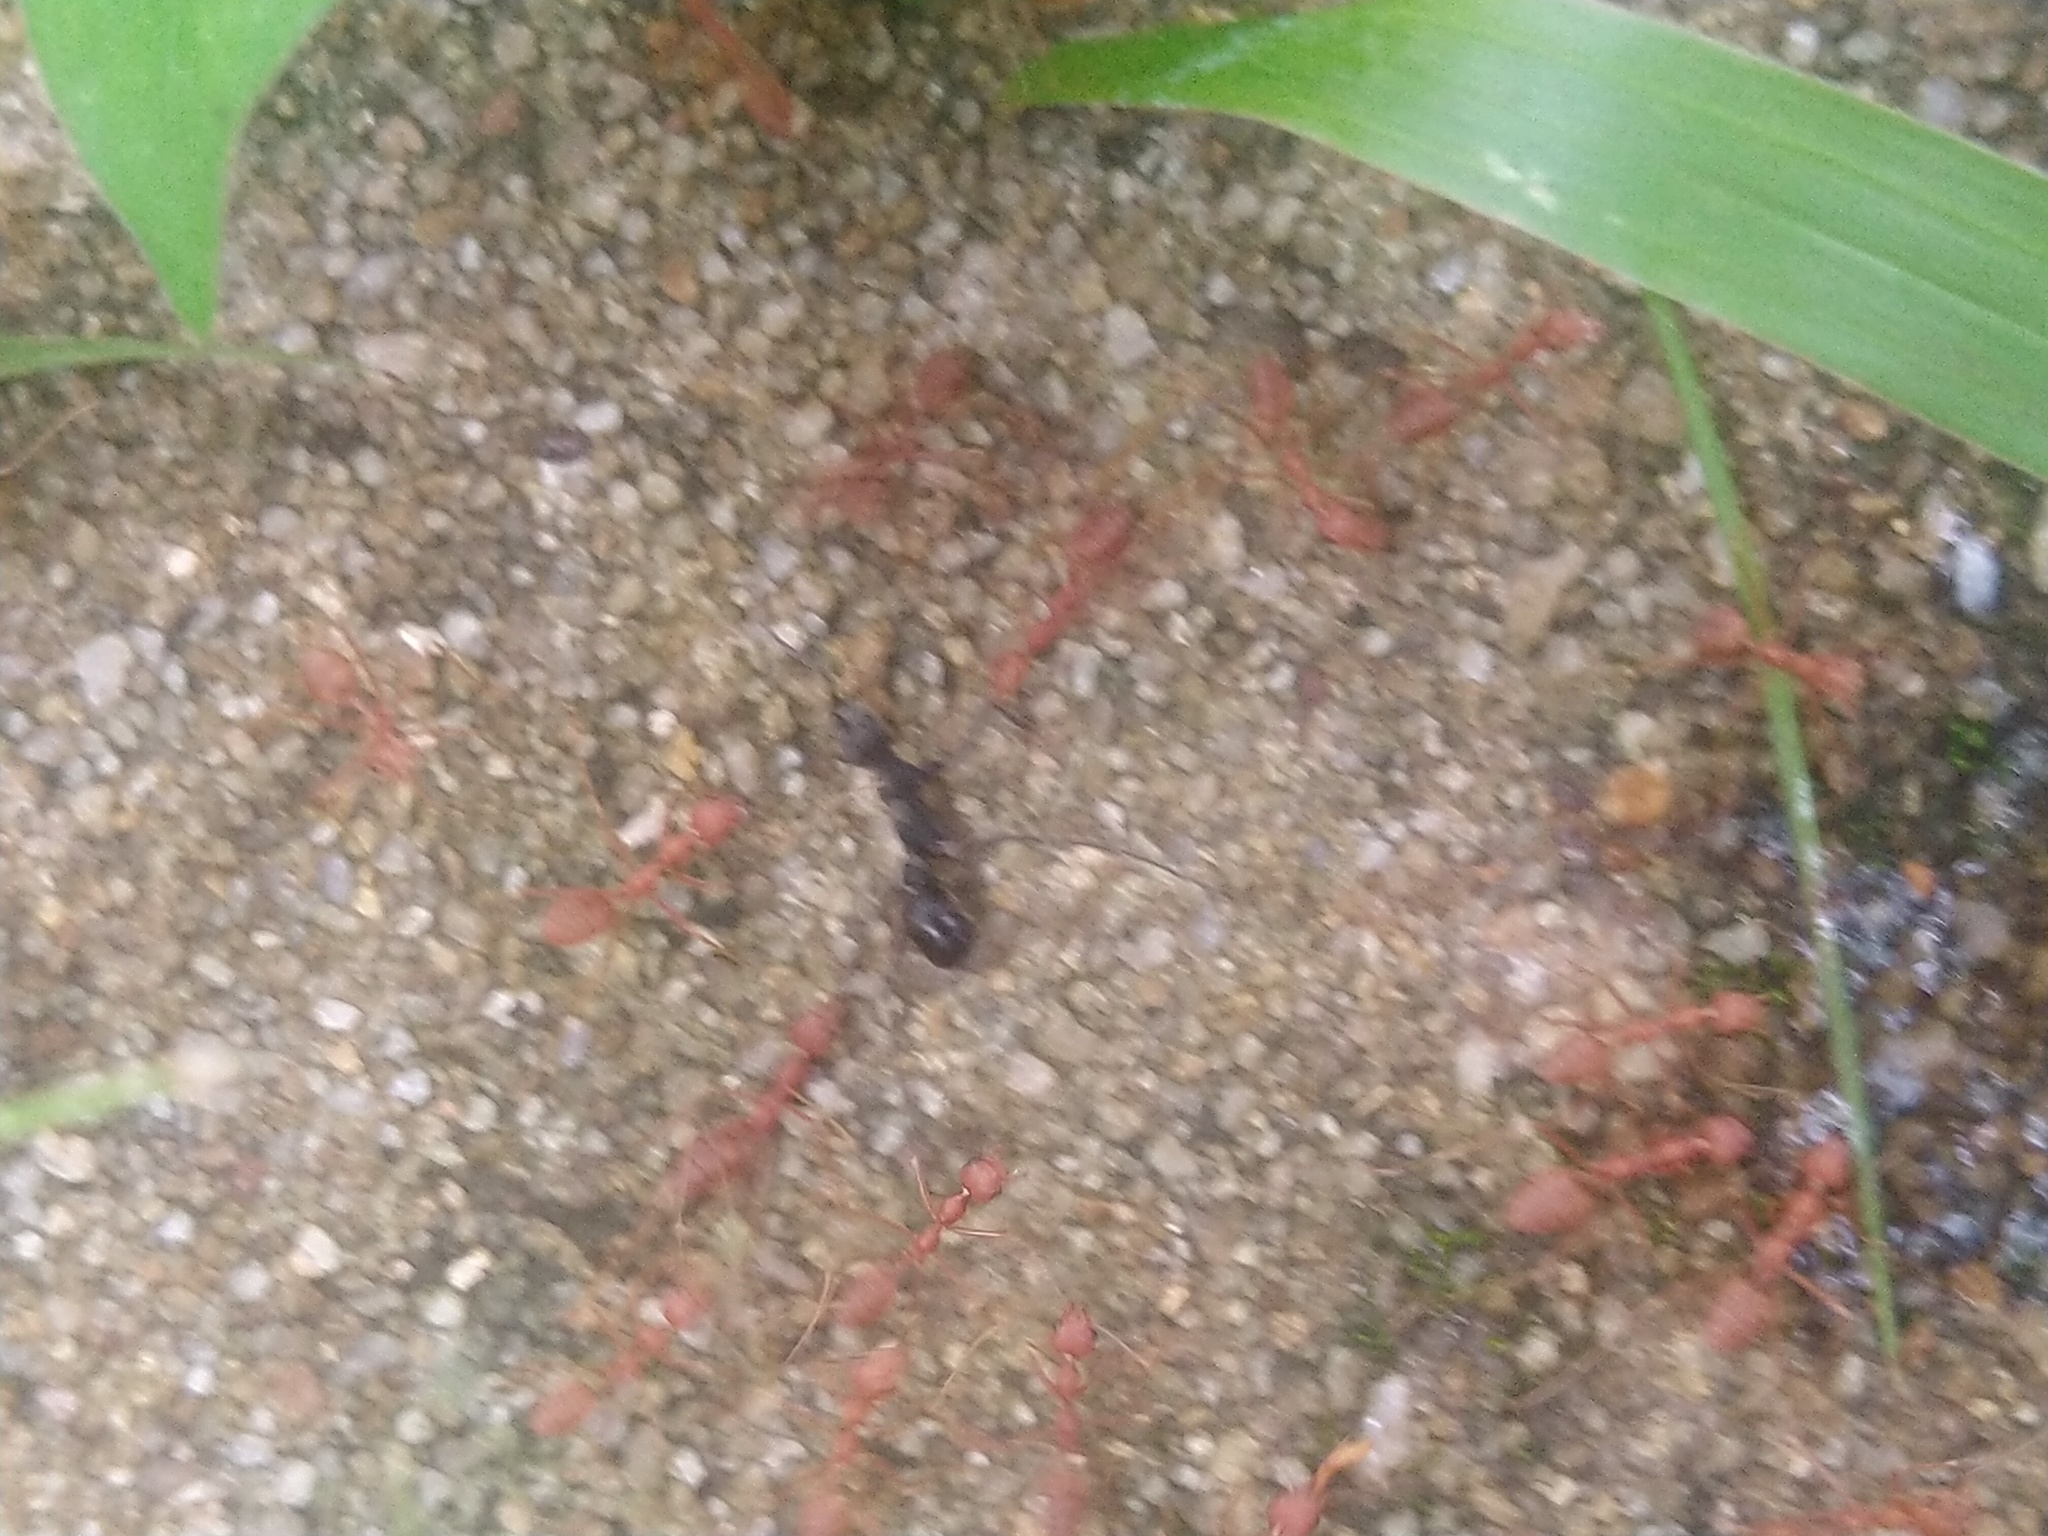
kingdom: Animalia
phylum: Arthropoda
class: Insecta
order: Hymenoptera
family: Formicidae
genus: Oecophylla
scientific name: Oecophylla smaragdina
